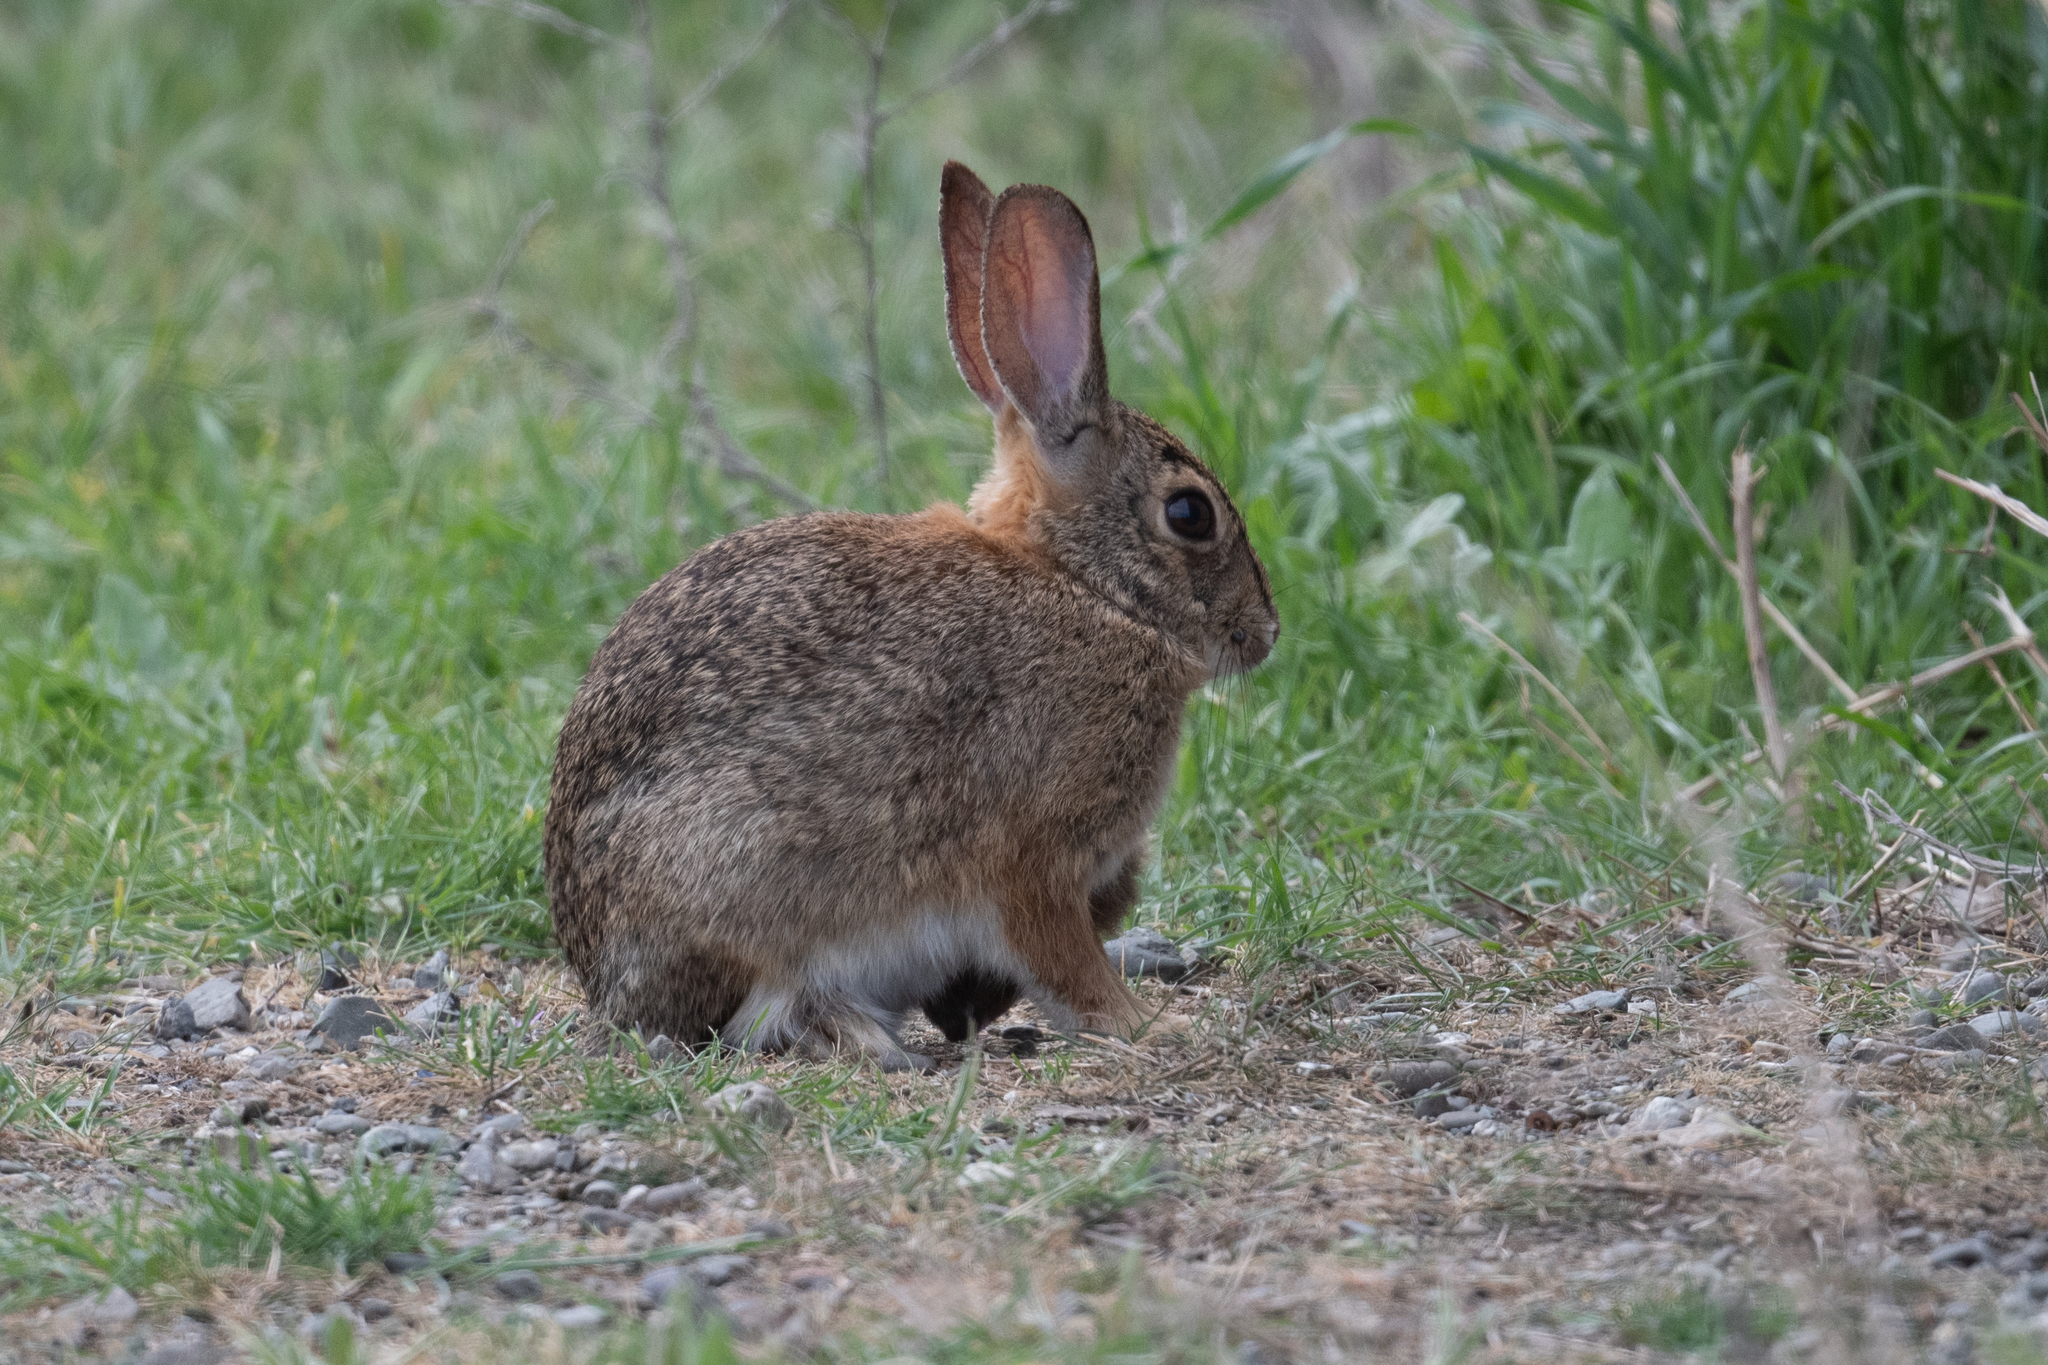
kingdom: Animalia
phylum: Chordata
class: Mammalia
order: Lagomorpha
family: Leporidae
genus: Sylvilagus
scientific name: Sylvilagus audubonii
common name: Desert cottontail
